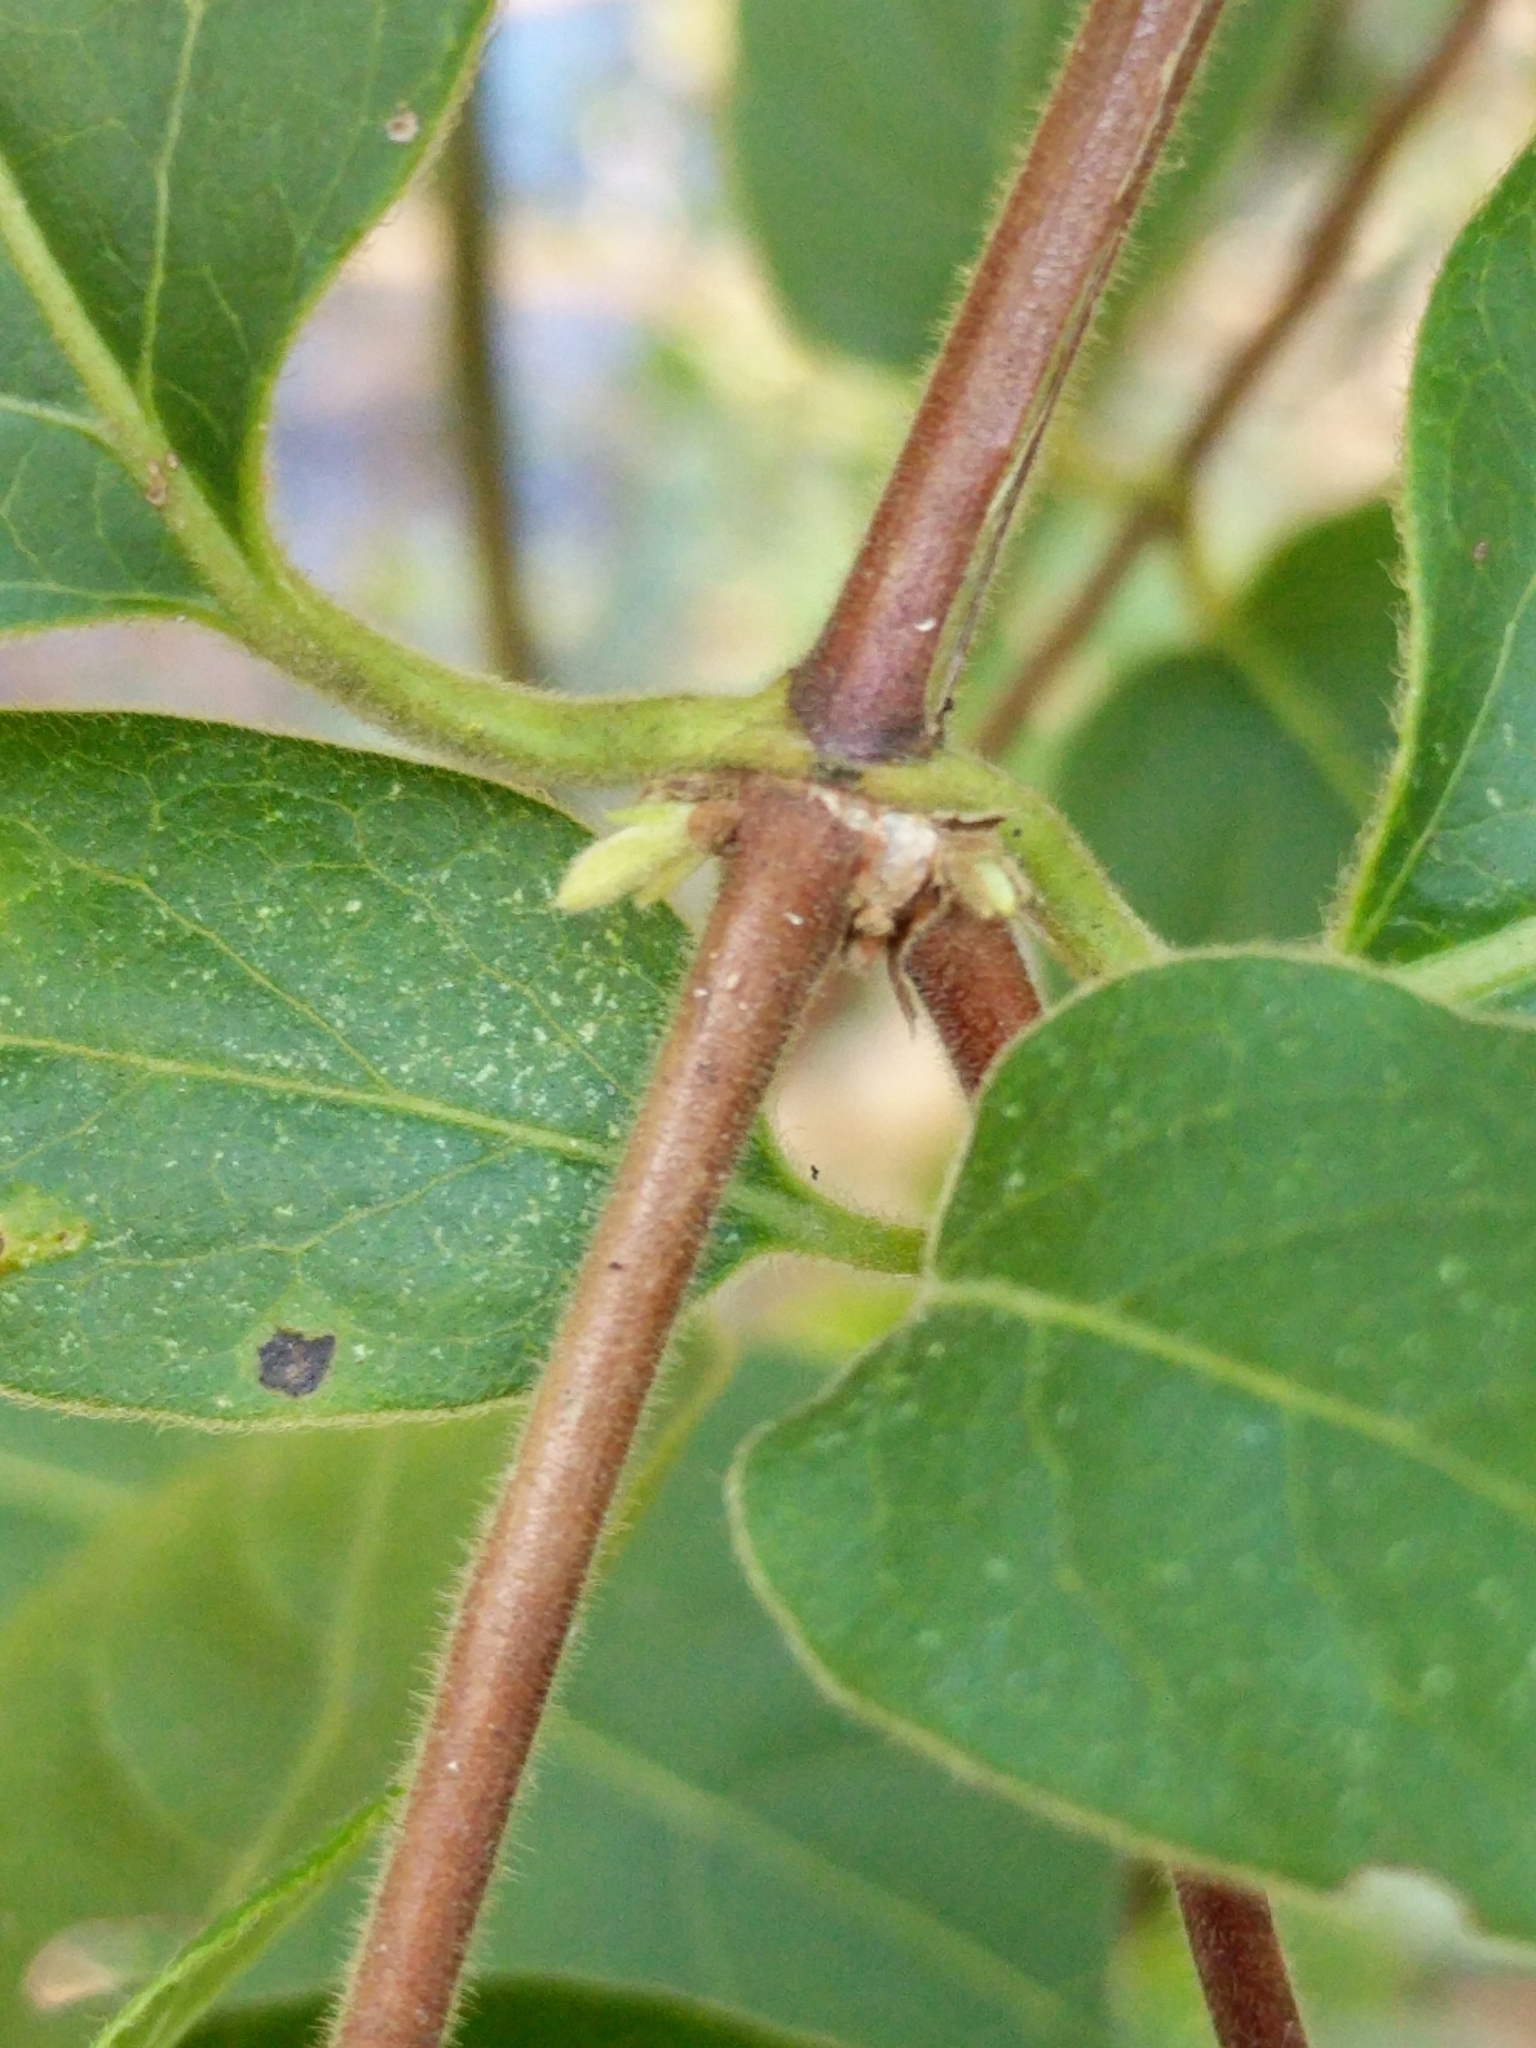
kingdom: Plantae
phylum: Tracheophyta
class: Magnoliopsida
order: Dipsacales
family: Caprifoliaceae
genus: Lonicera
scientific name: Lonicera japonica
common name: Japanese honeysuckle
